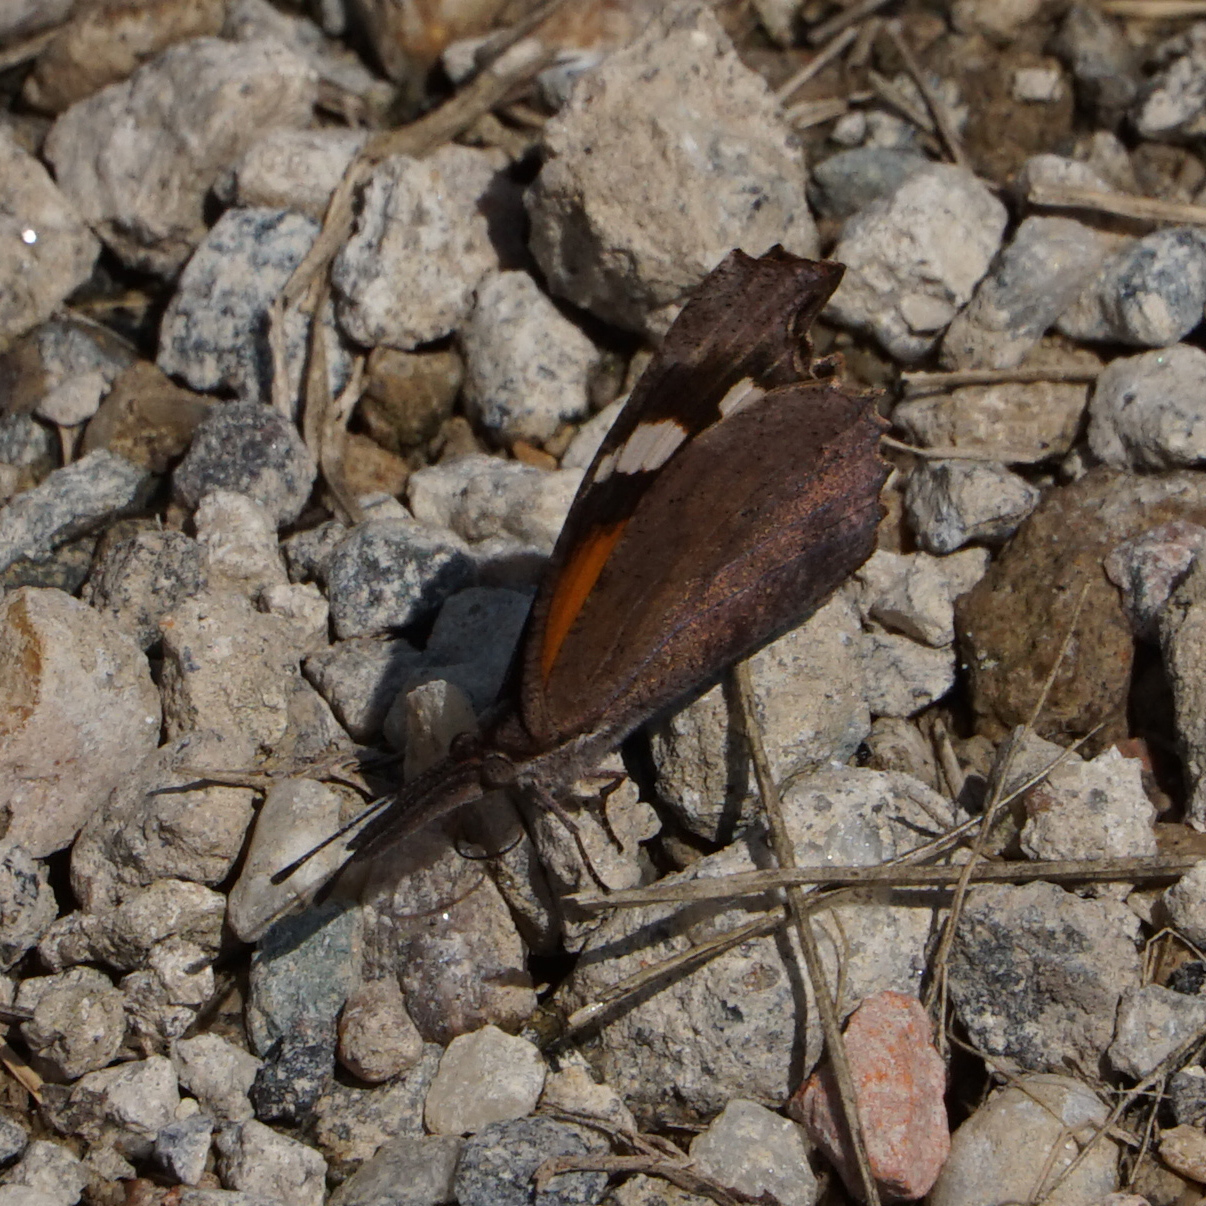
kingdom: Animalia
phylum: Arthropoda
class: Insecta
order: Lepidoptera
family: Nymphalidae
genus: Libytheana
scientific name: Libytheana carinenta
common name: American snout
